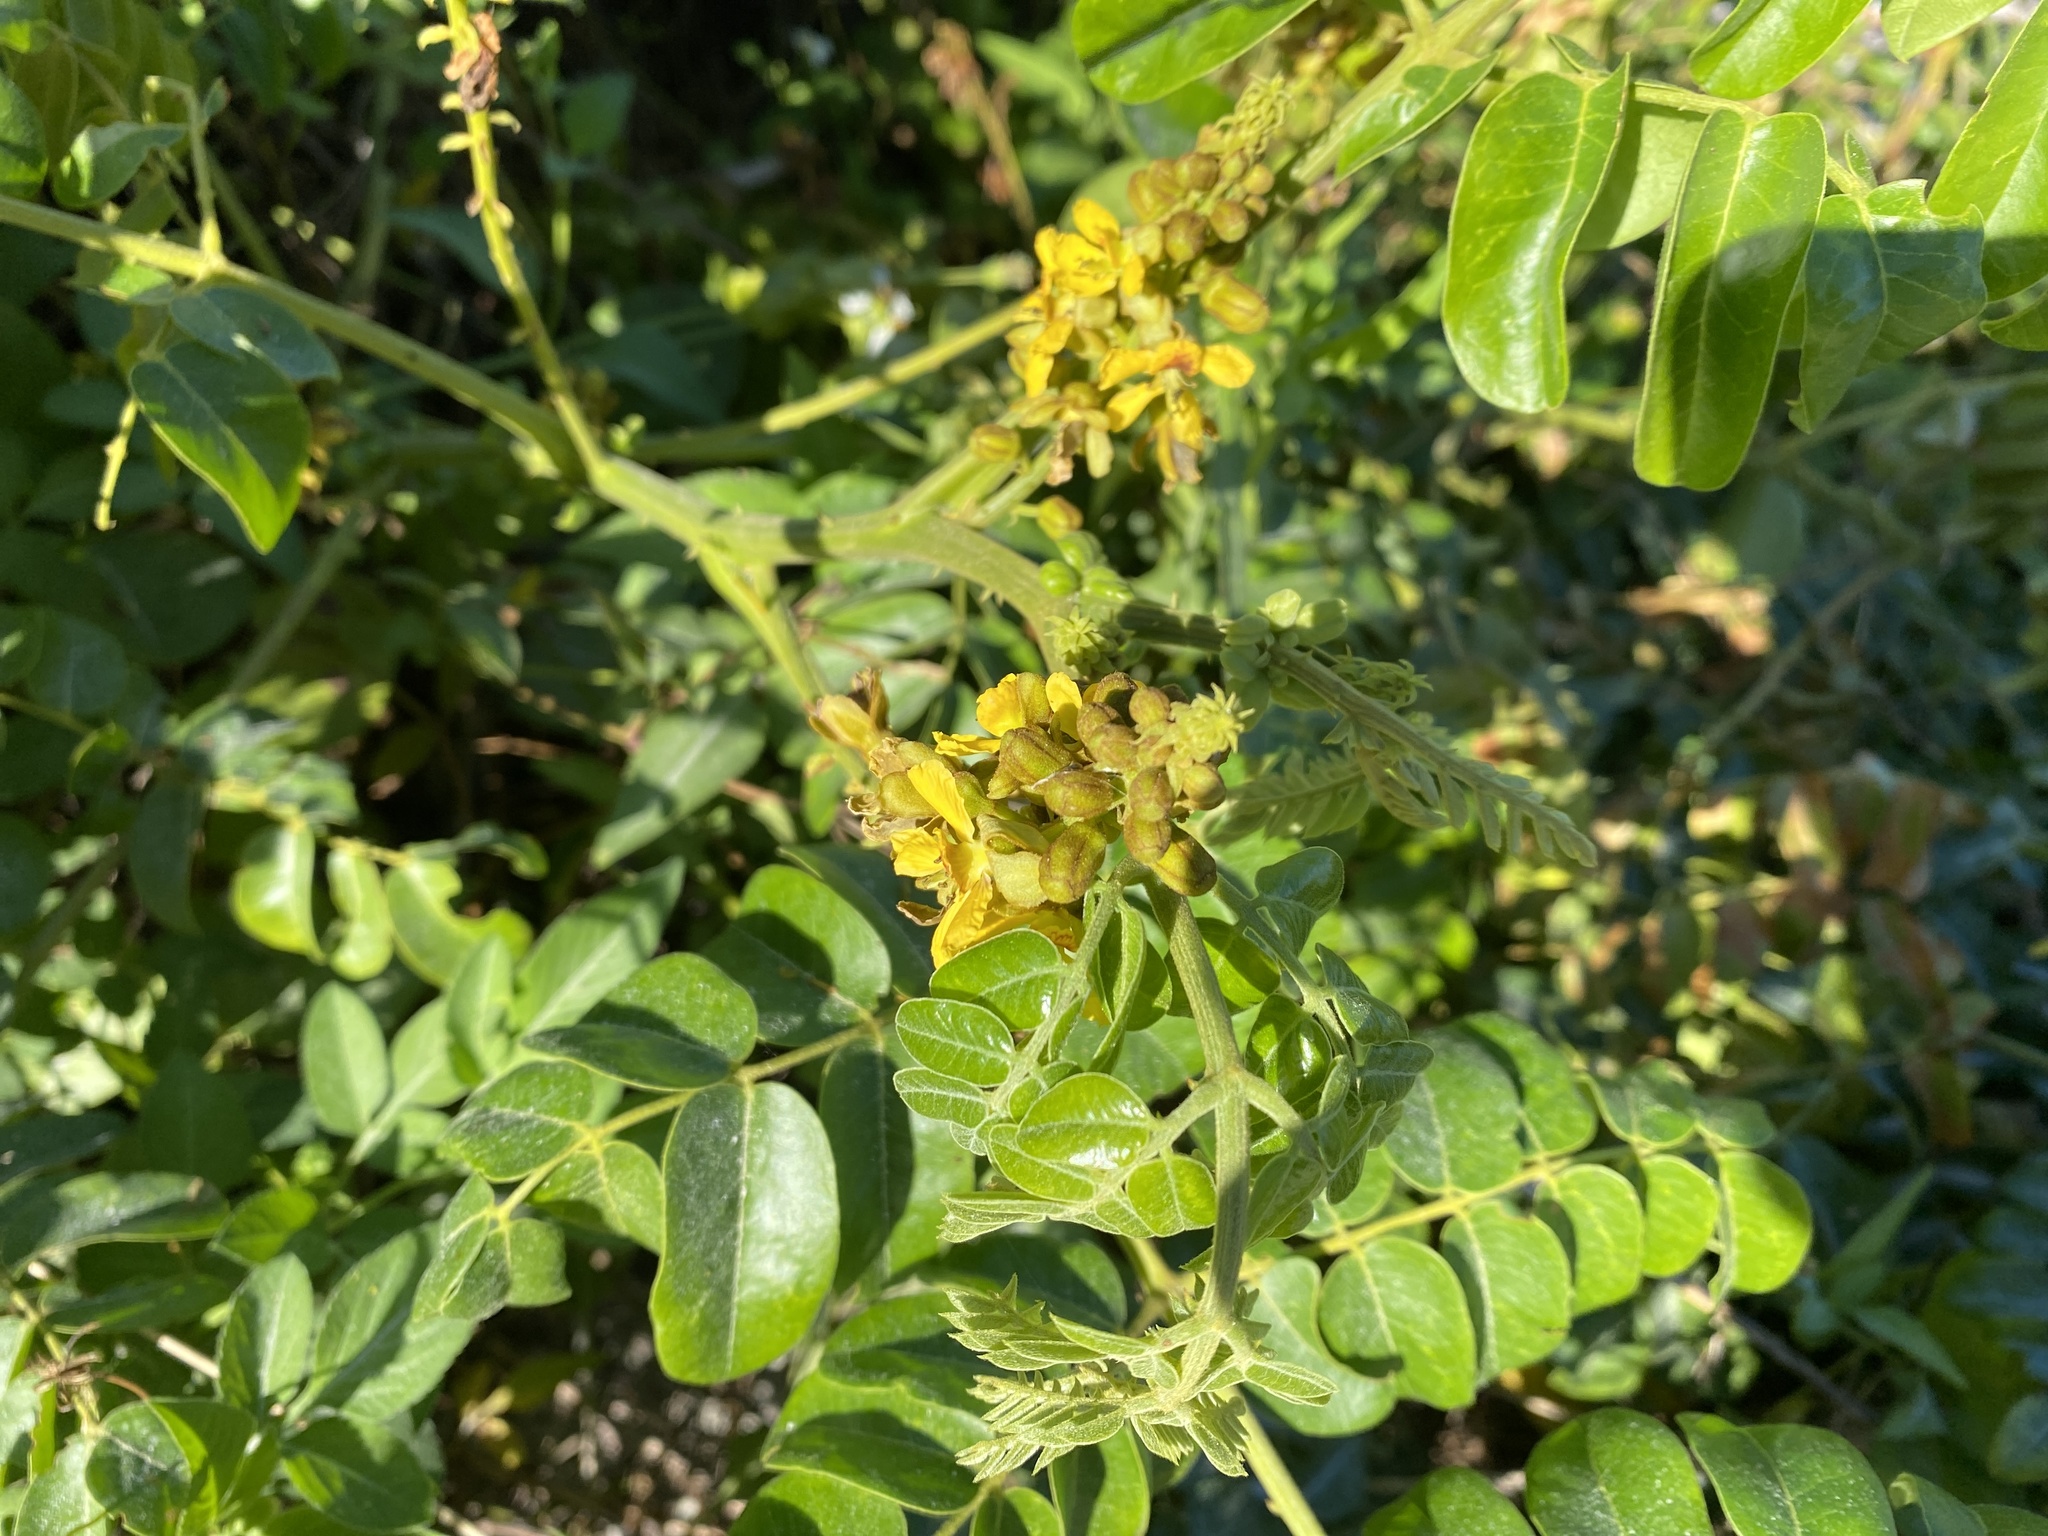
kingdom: Plantae
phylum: Tracheophyta
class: Magnoliopsida
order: Fabales
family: Fabaceae
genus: Guilandina
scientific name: Guilandina bonduc
